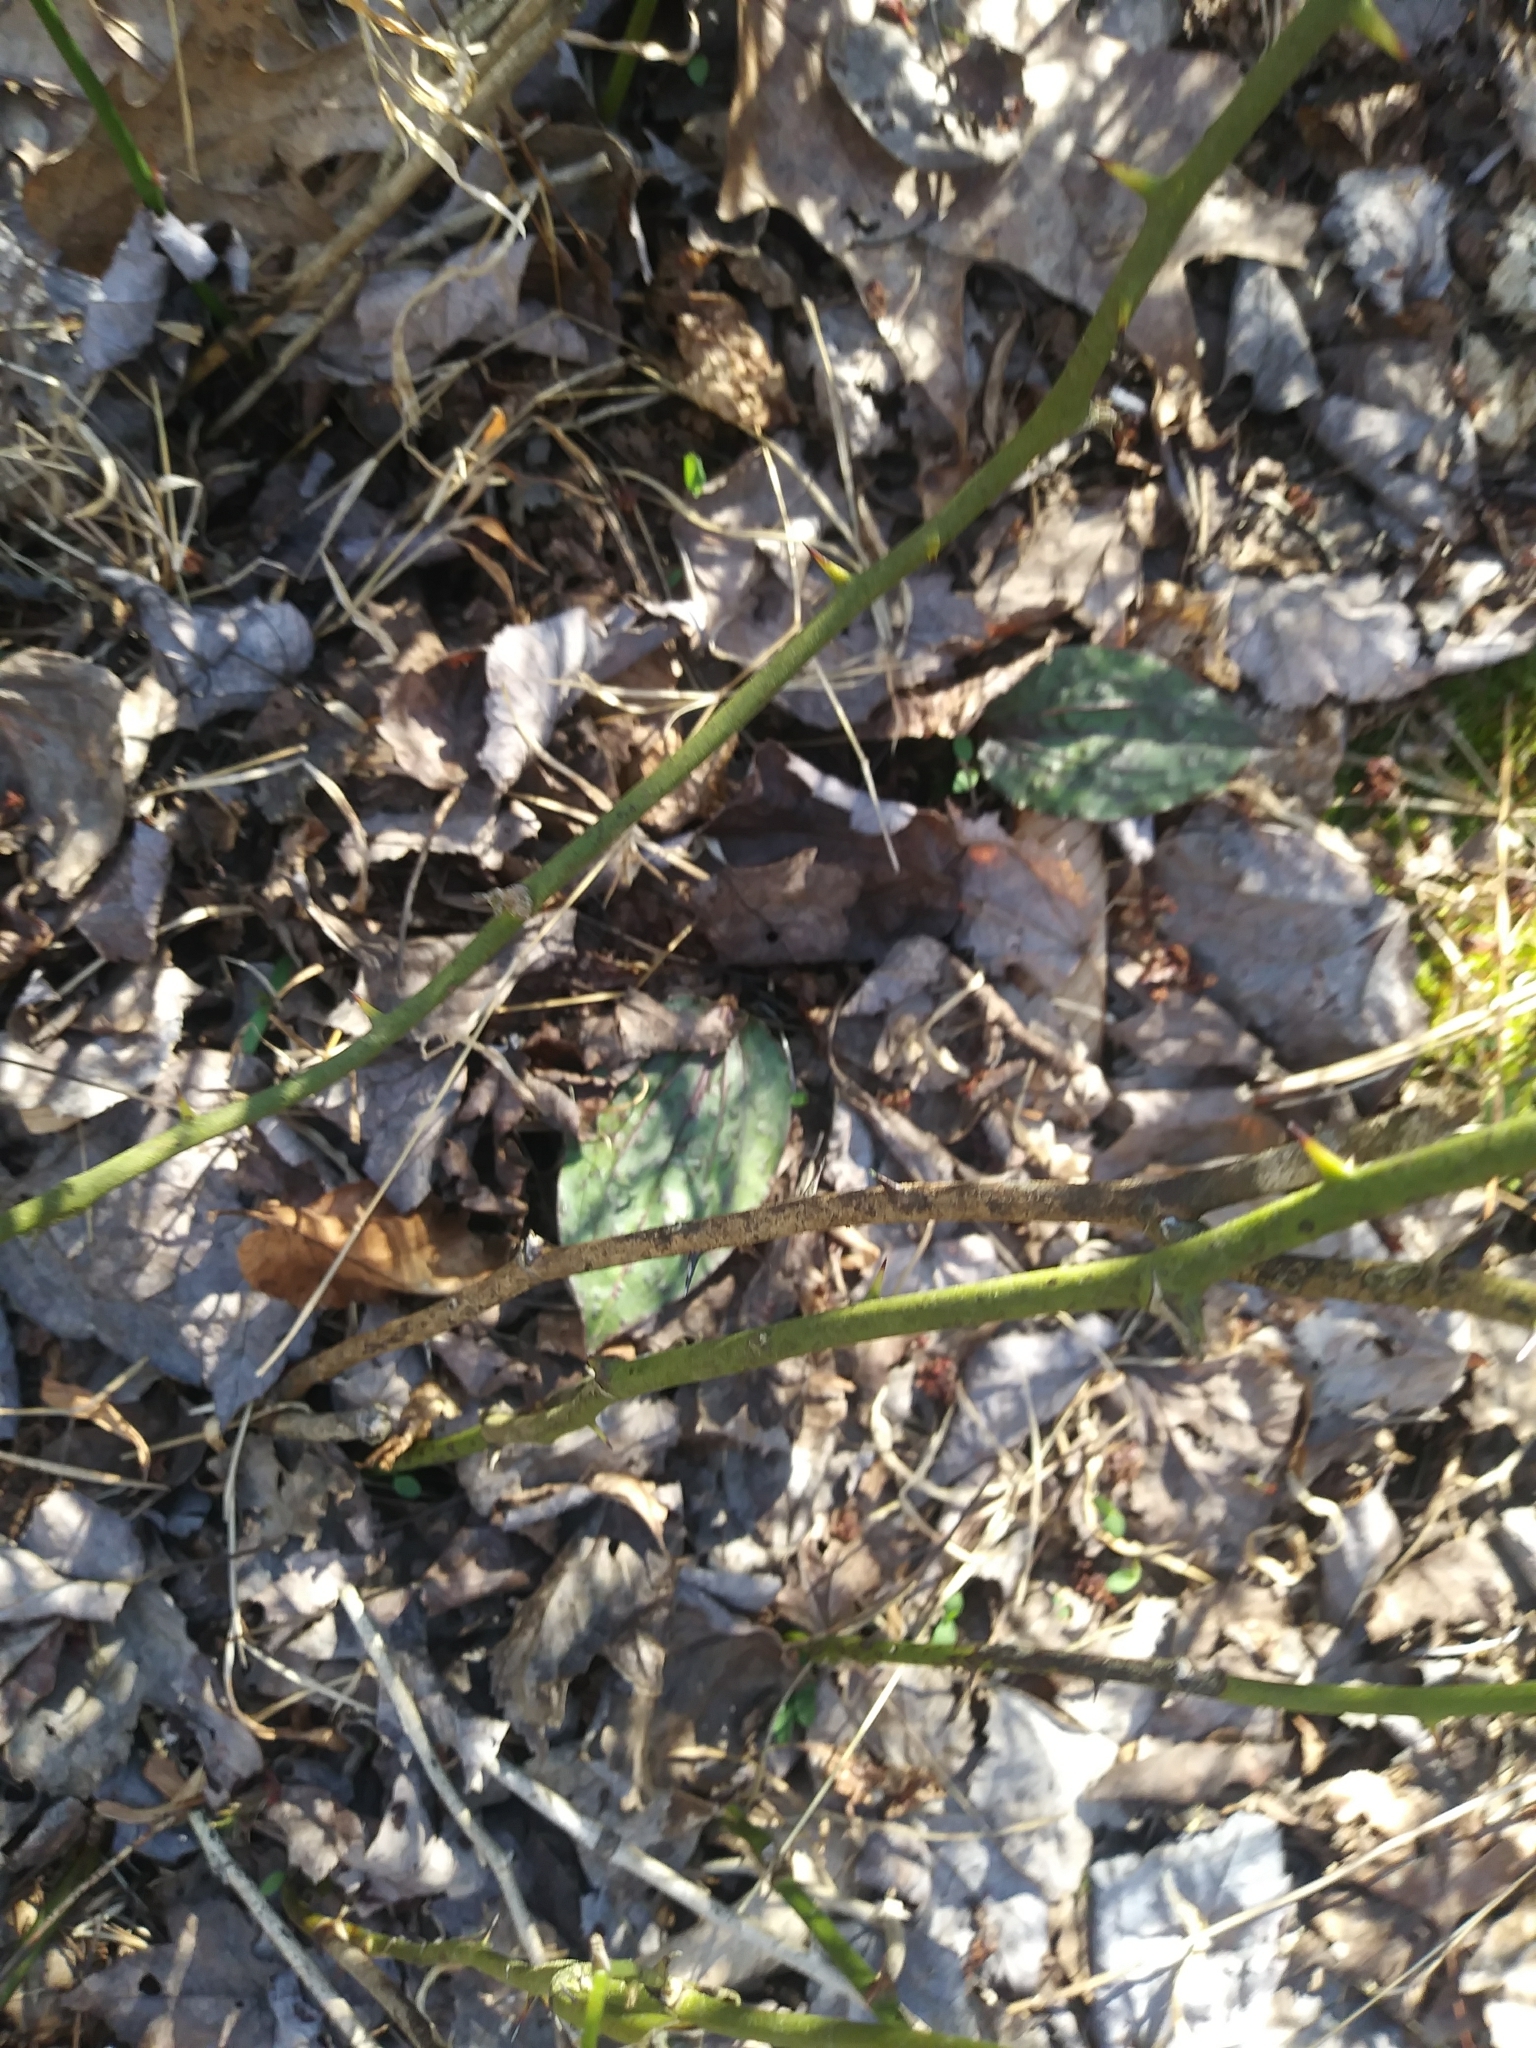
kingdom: Plantae
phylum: Tracheophyta
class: Liliopsida
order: Asparagales
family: Orchidaceae
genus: Tipularia
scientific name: Tipularia discolor
